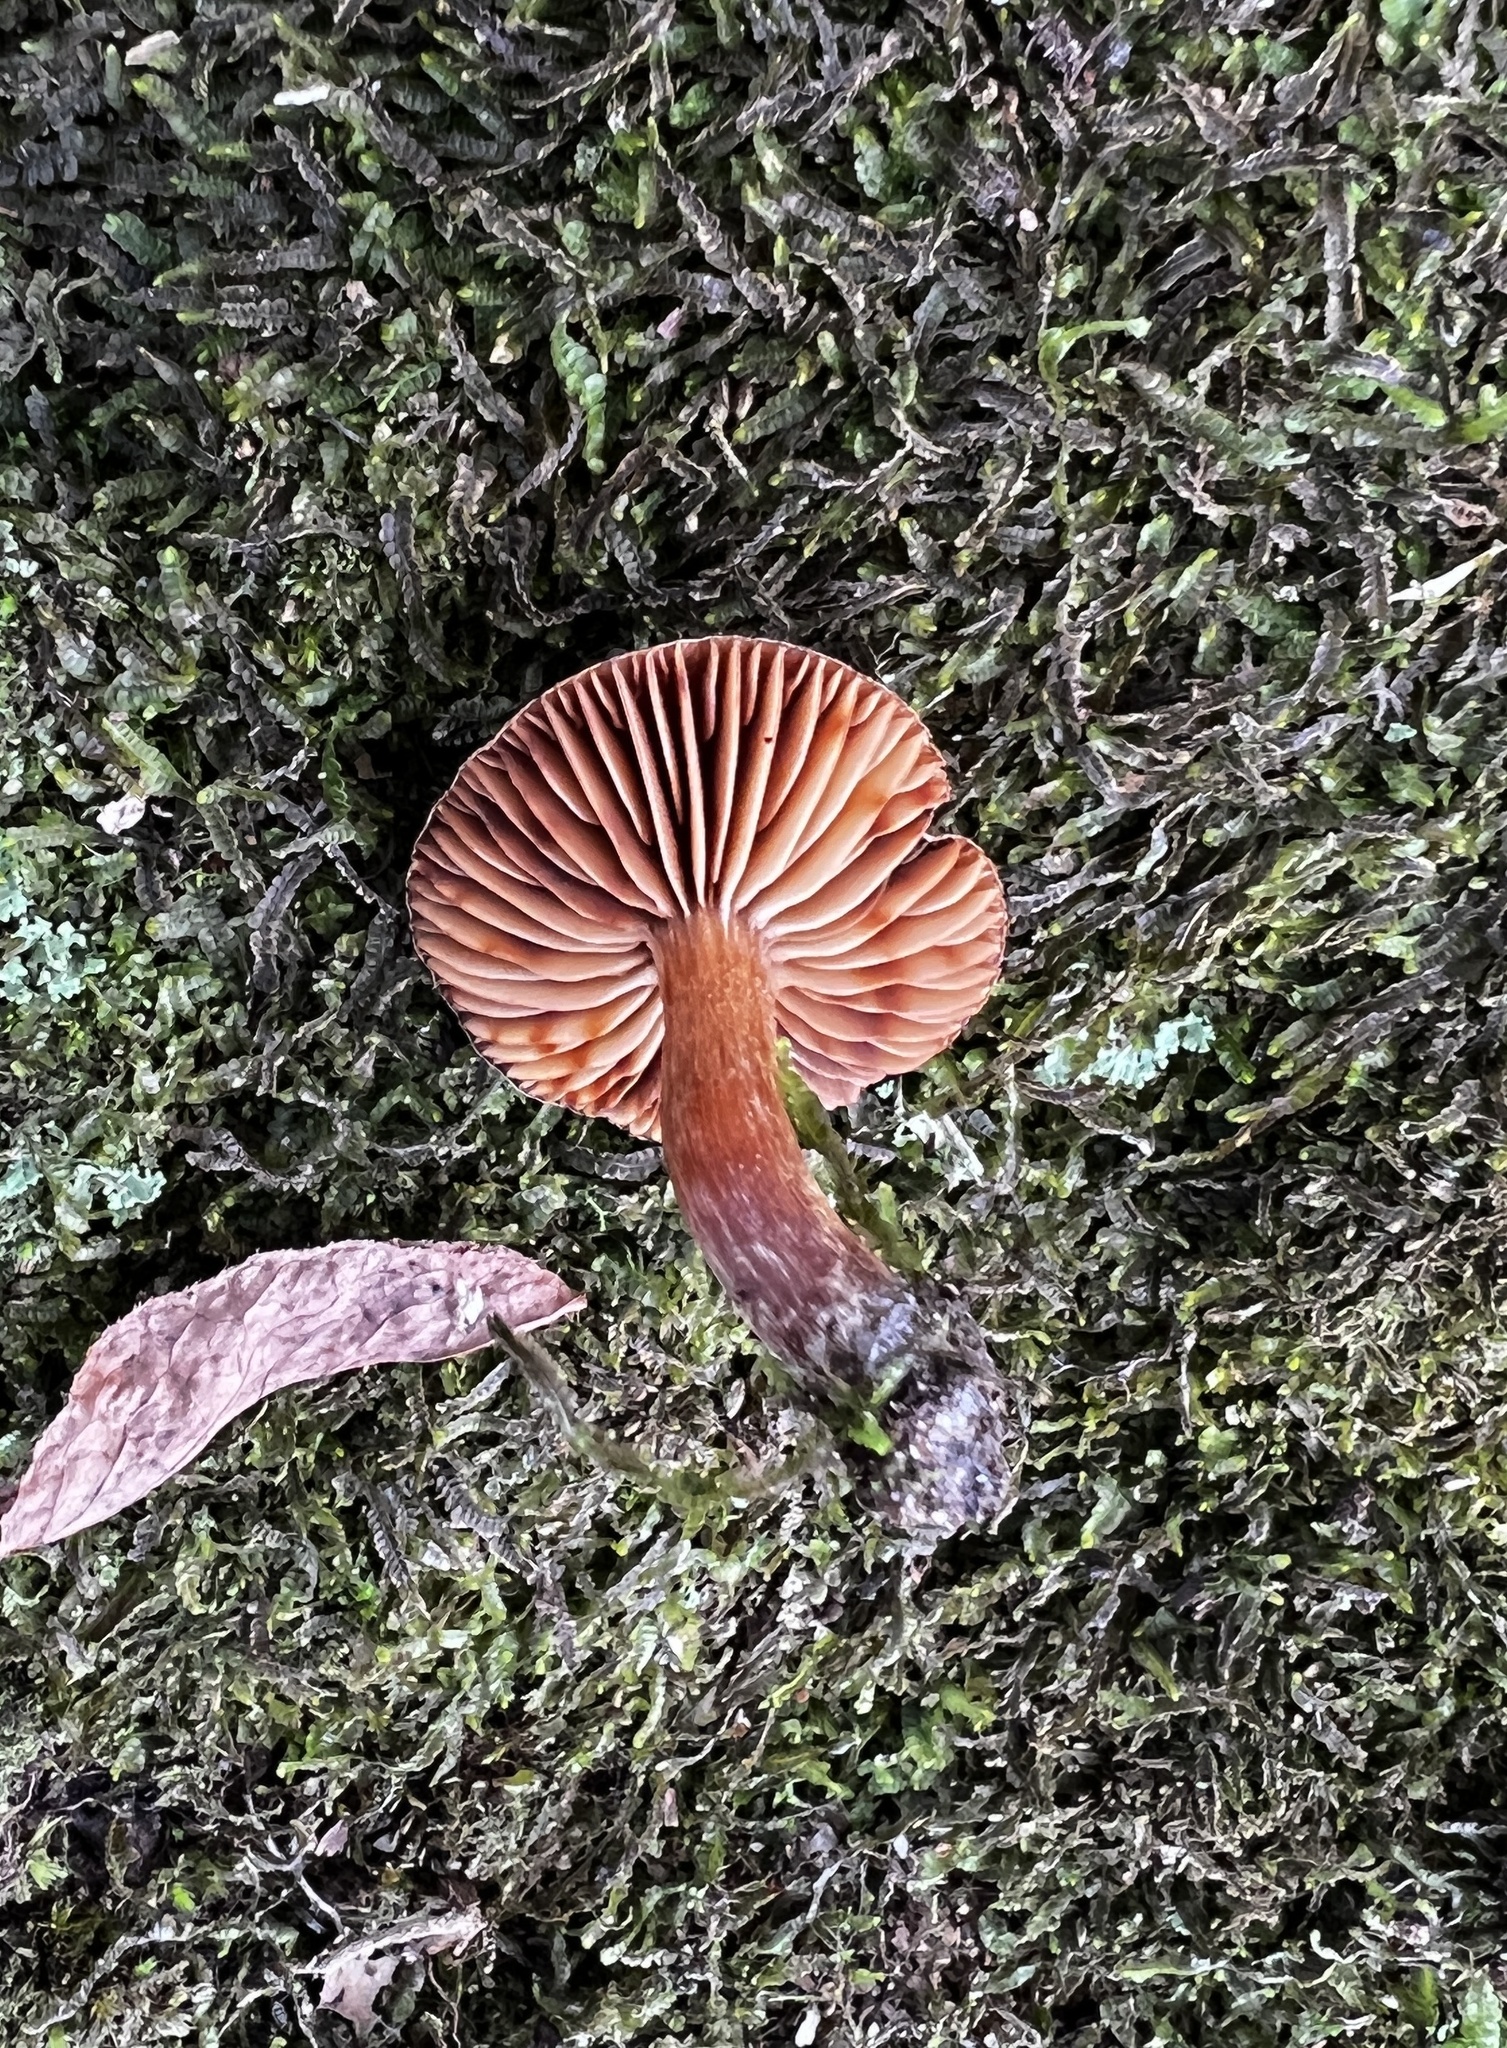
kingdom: Fungi
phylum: Basidiomycota
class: Agaricomycetes
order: Agaricales
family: Cortinariaceae
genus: Cortinarius
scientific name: Cortinarius semivestitus
